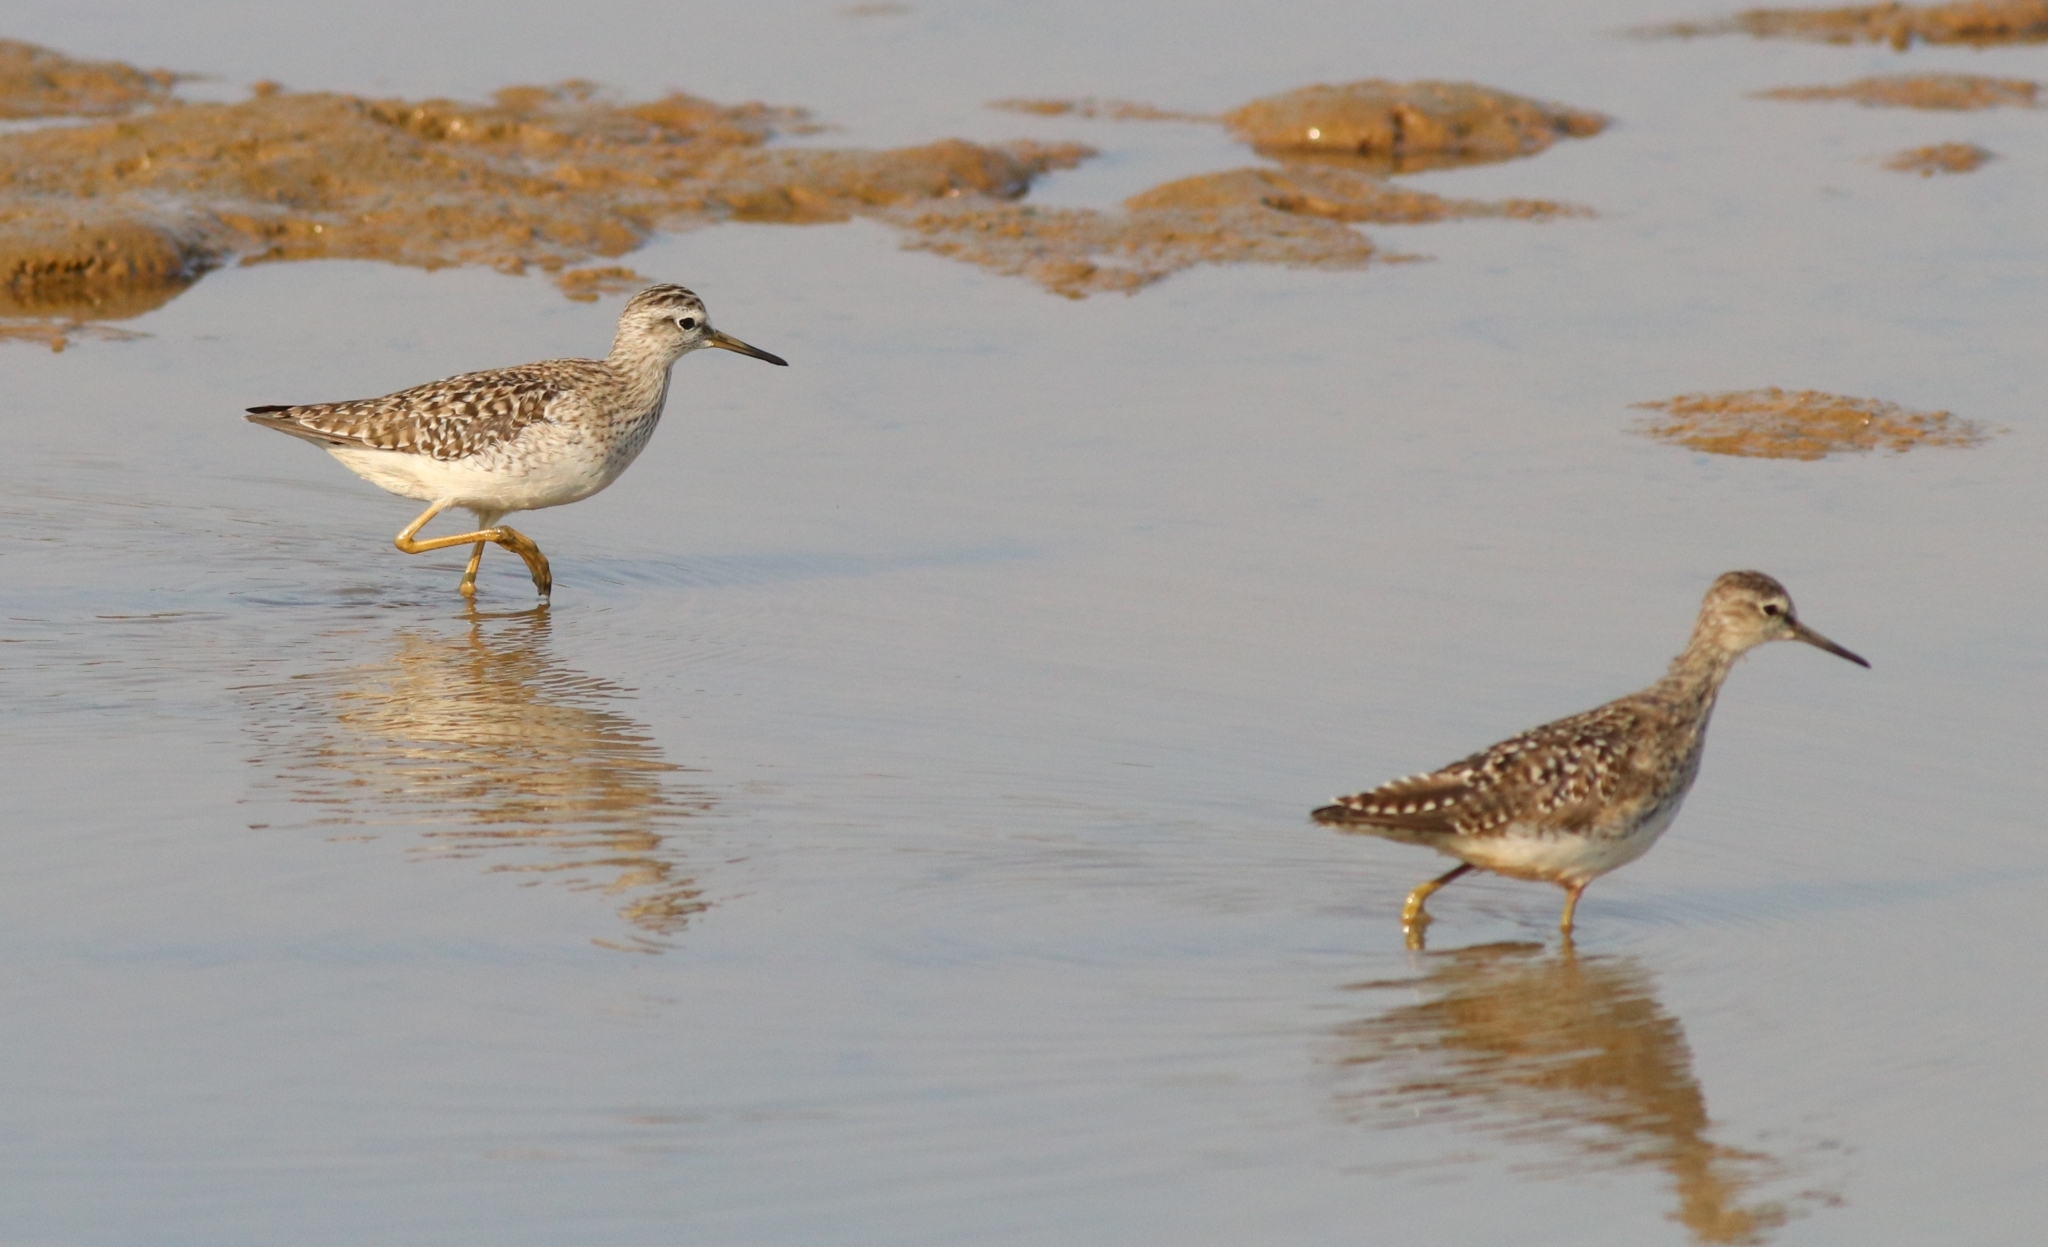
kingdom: Animalia
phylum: Chordata
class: Aves
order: Charadriiformes
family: Scolopacidae
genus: Tringa
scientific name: Tringa glareola
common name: Wood sandpiper
